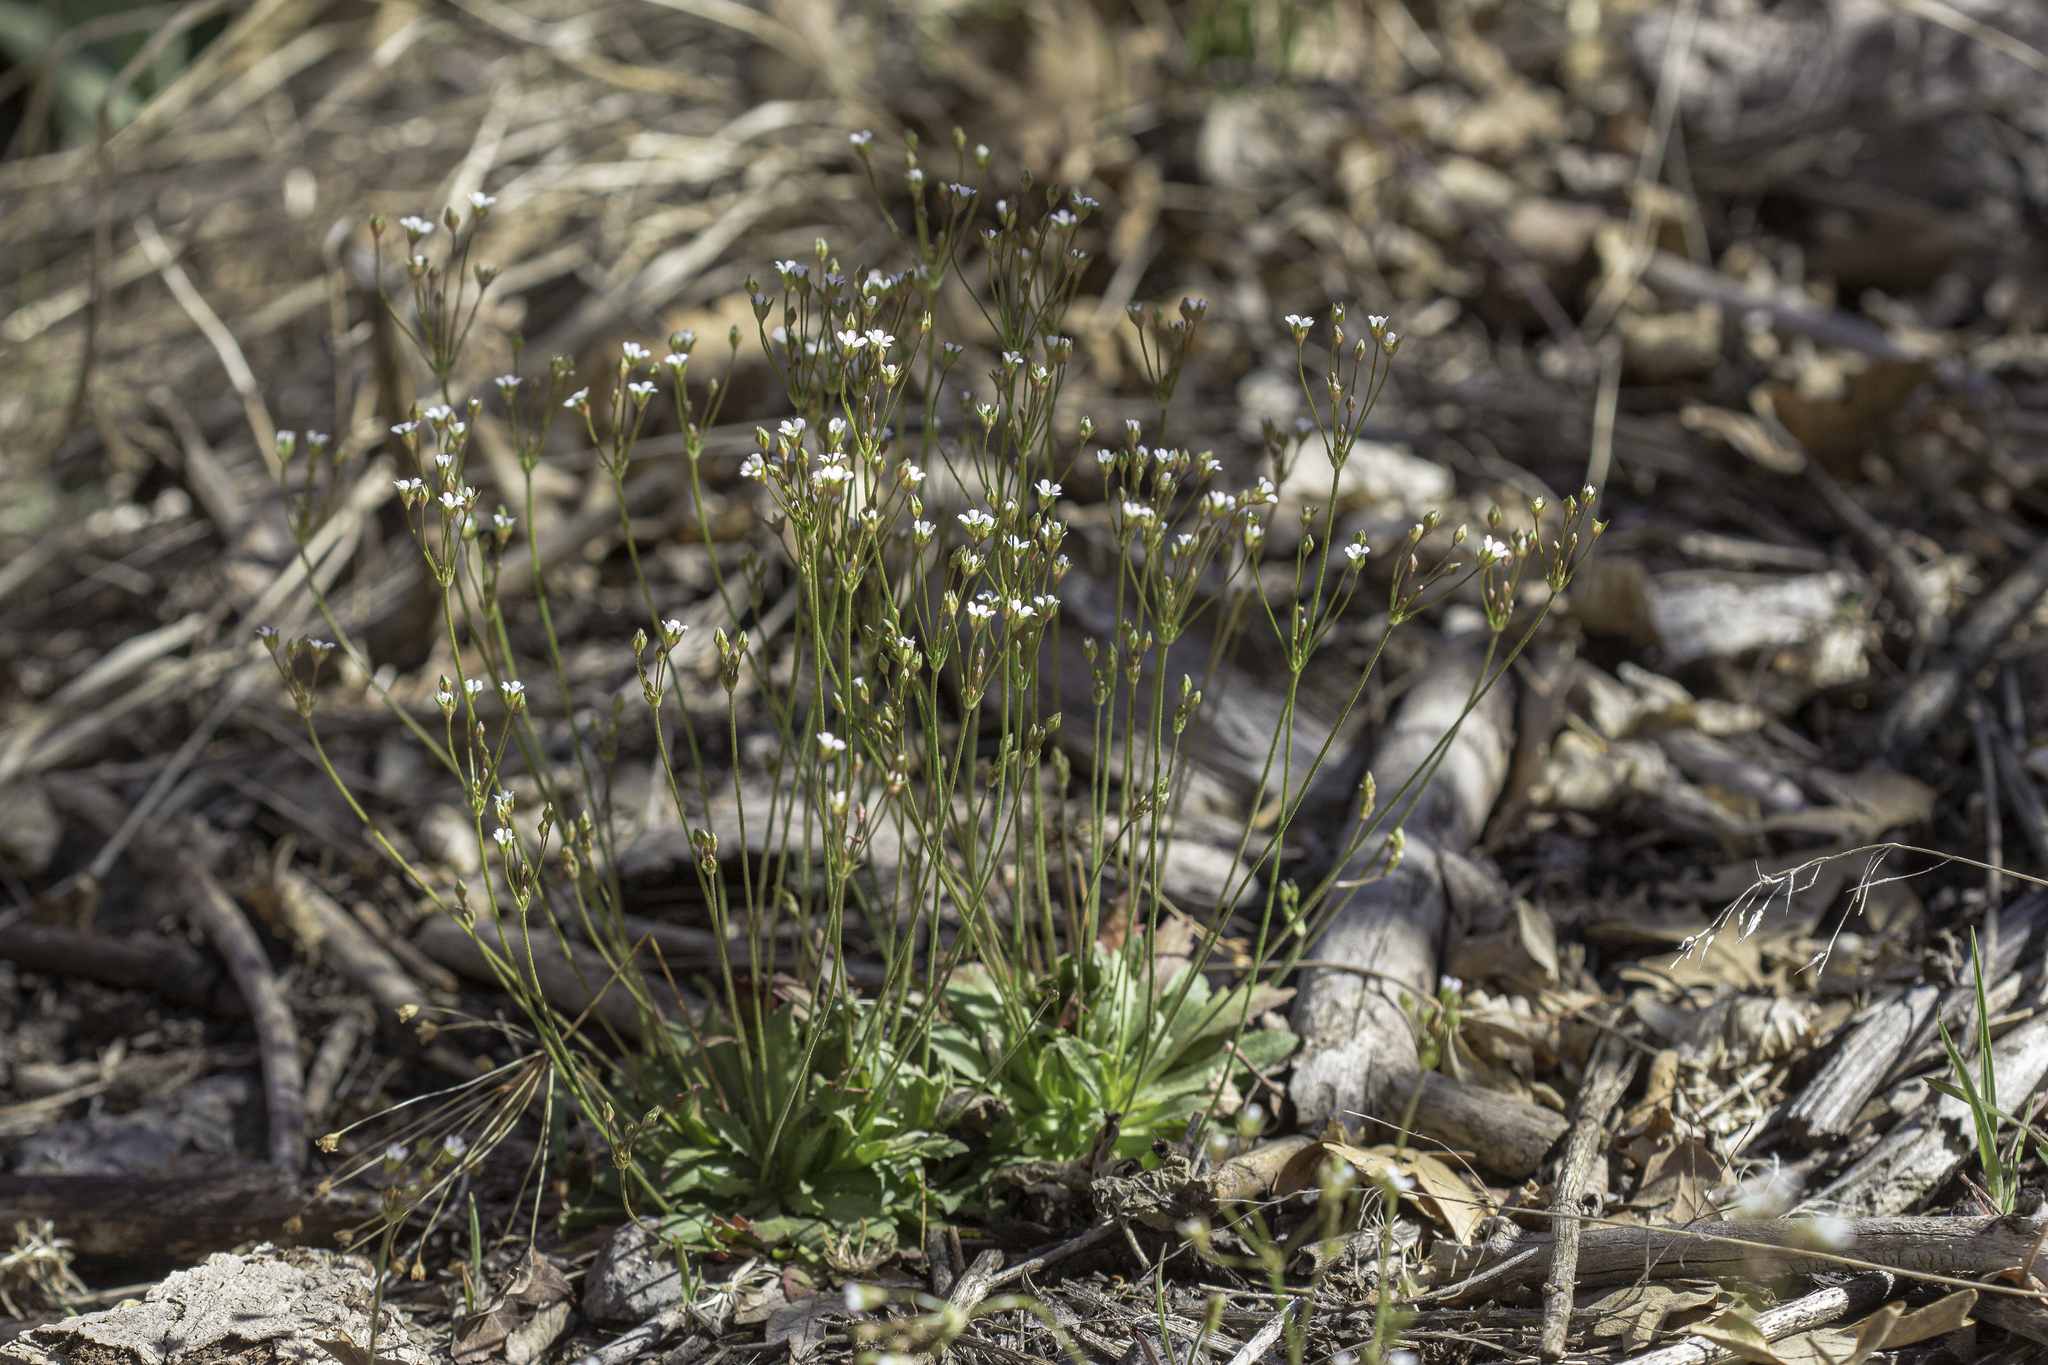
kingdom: Plantae
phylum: Tracheophyta
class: Magnoliopsida
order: Ericales
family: Primulaceae
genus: Androsace
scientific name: Androsace septentrionalis
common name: Hairy northern fairy-candelabra
